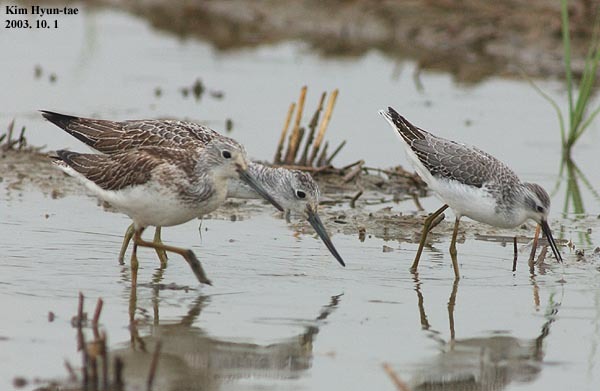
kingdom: Animalia
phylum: Chordata
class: Aves
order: Charadriiformes
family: Scolopacidae
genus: Tringa
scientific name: Tringa nebularia
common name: Common greenshank
